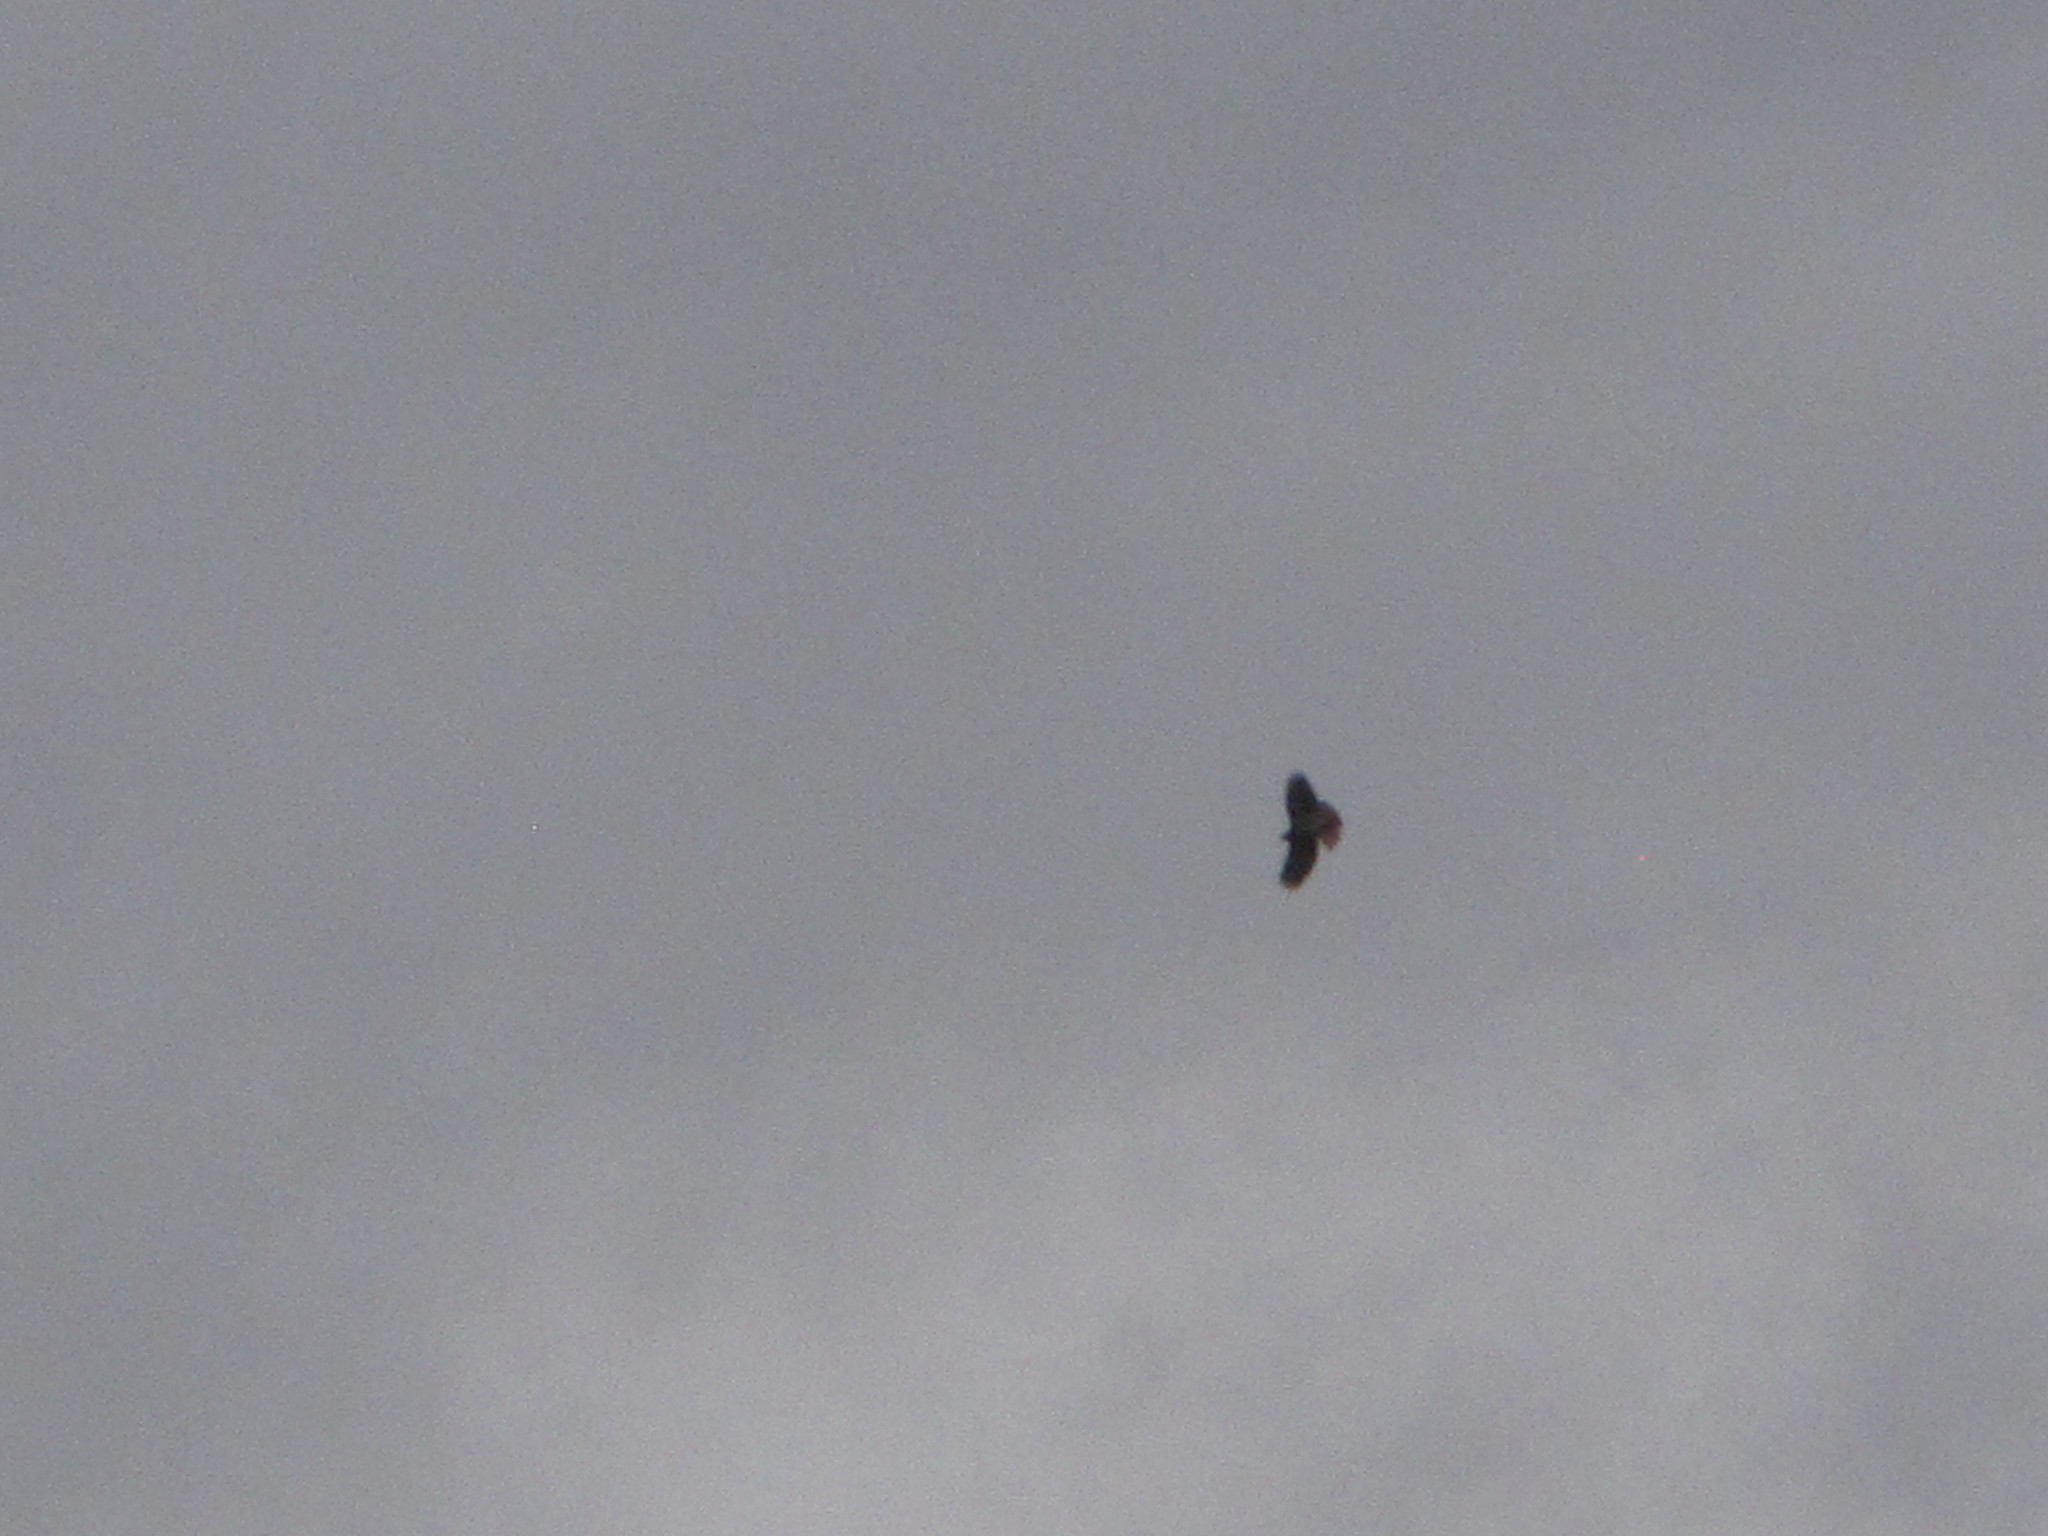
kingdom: Animalia
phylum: Chordata
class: Aves
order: Accipitriformes
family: Accipitridae
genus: Buteo
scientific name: Buteo jamaicensis
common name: Red-tailed hawk
